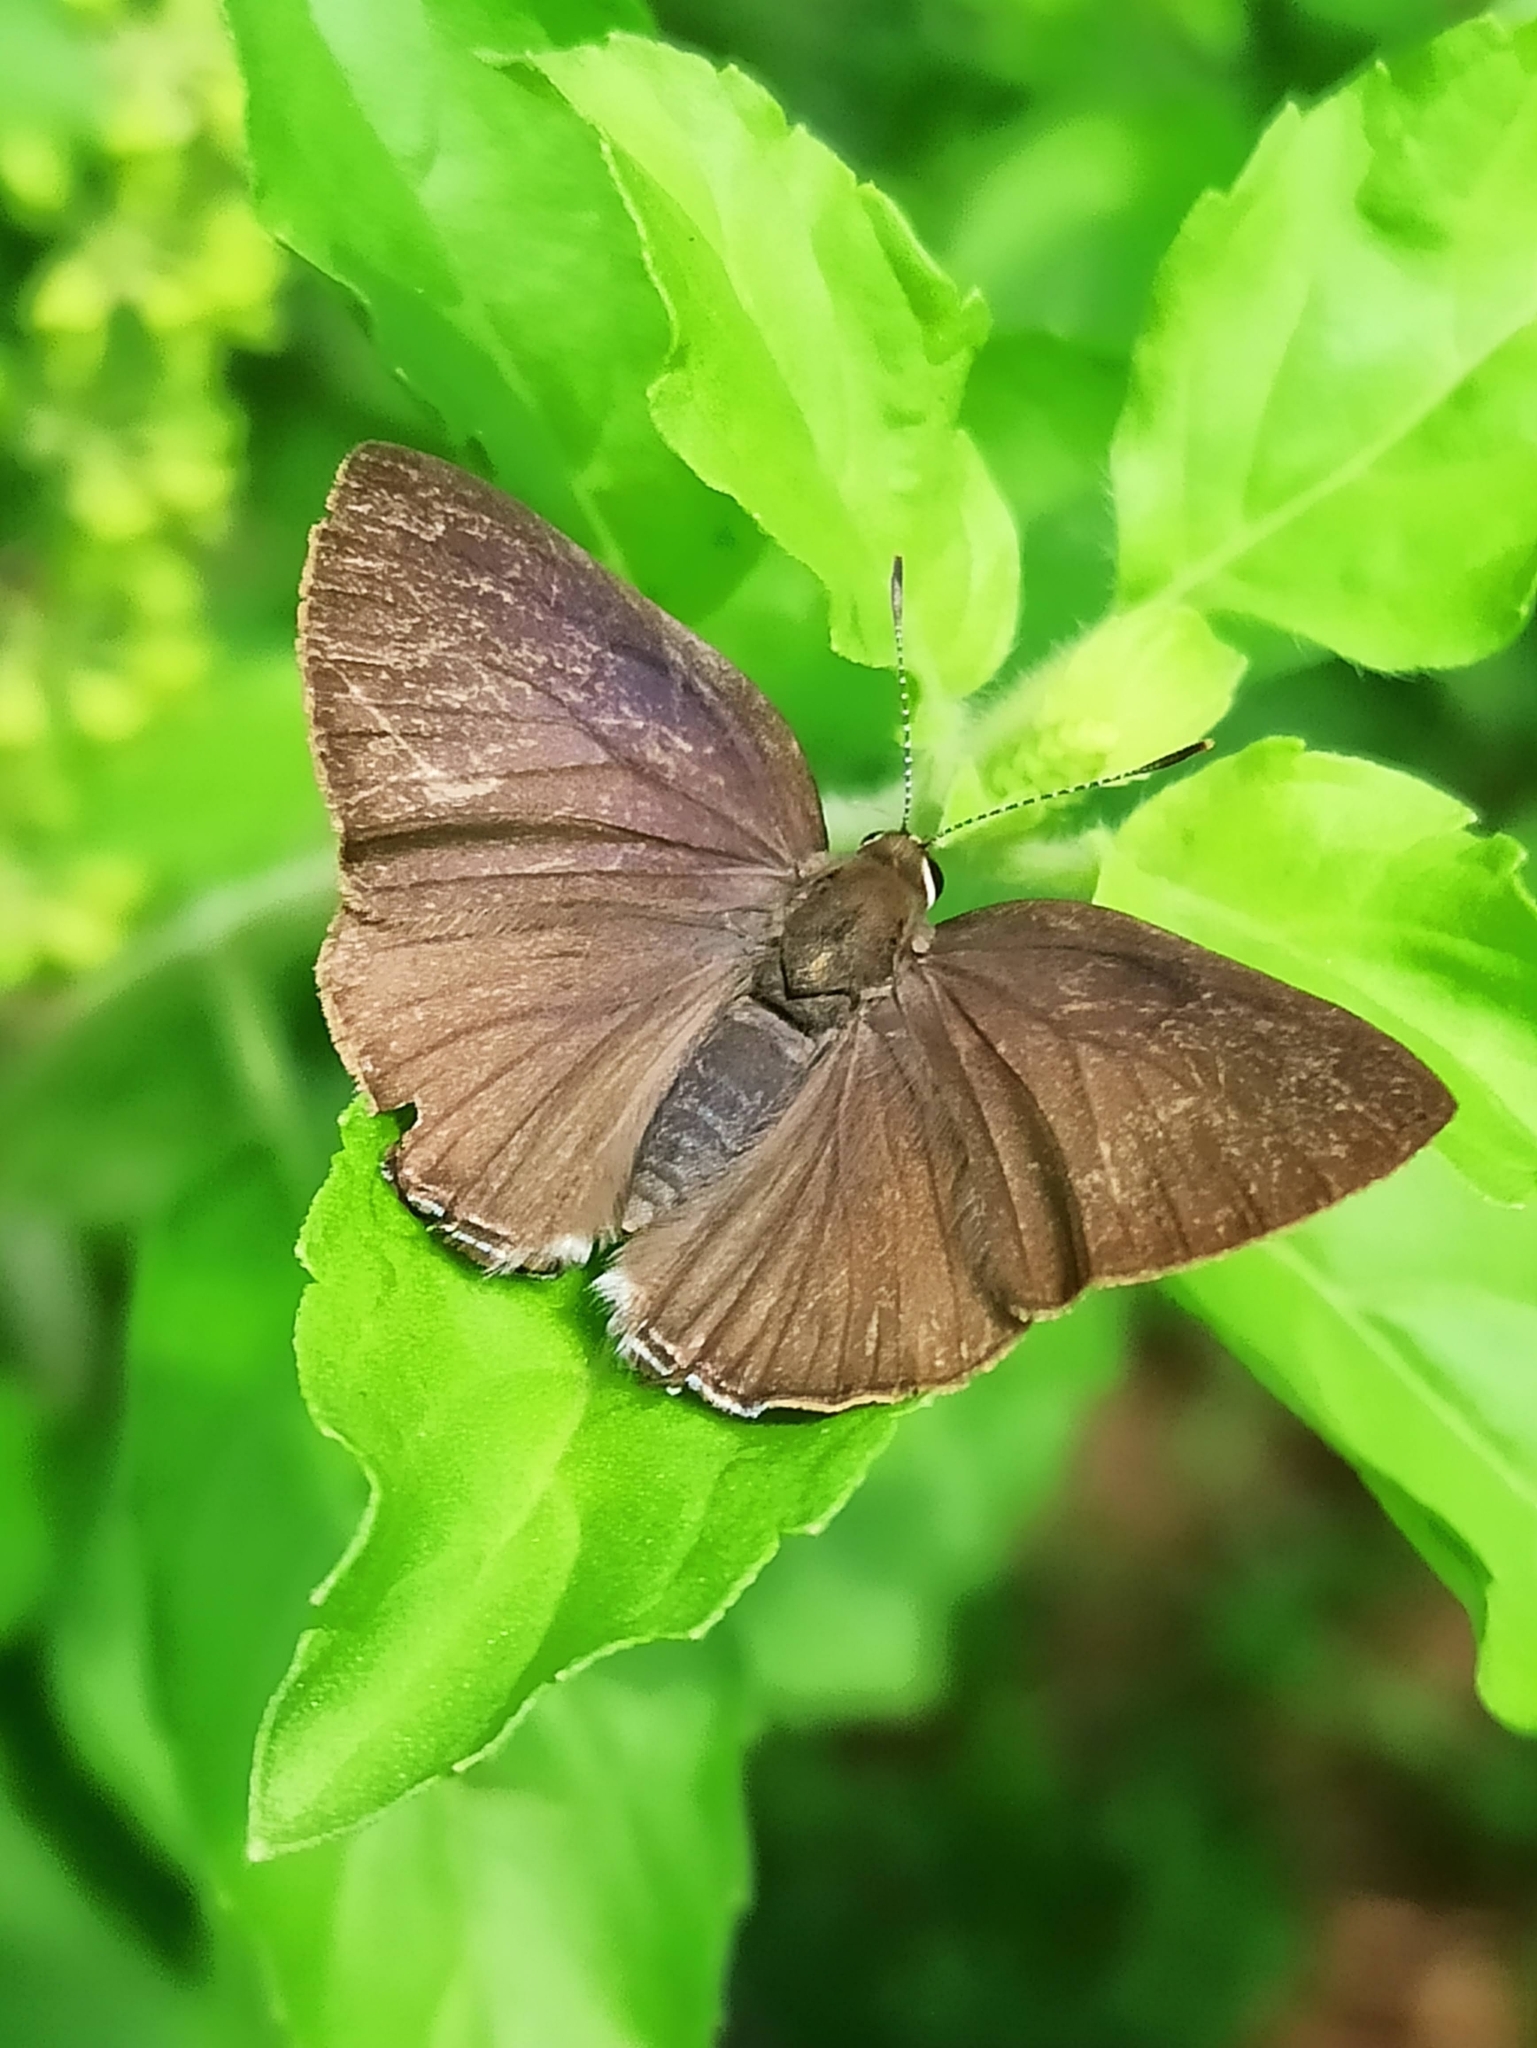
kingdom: Animalia
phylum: Arthropoda
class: Insecta
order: Lepidoptera
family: Lycaenidae
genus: Rapala
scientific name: Rapala manea
